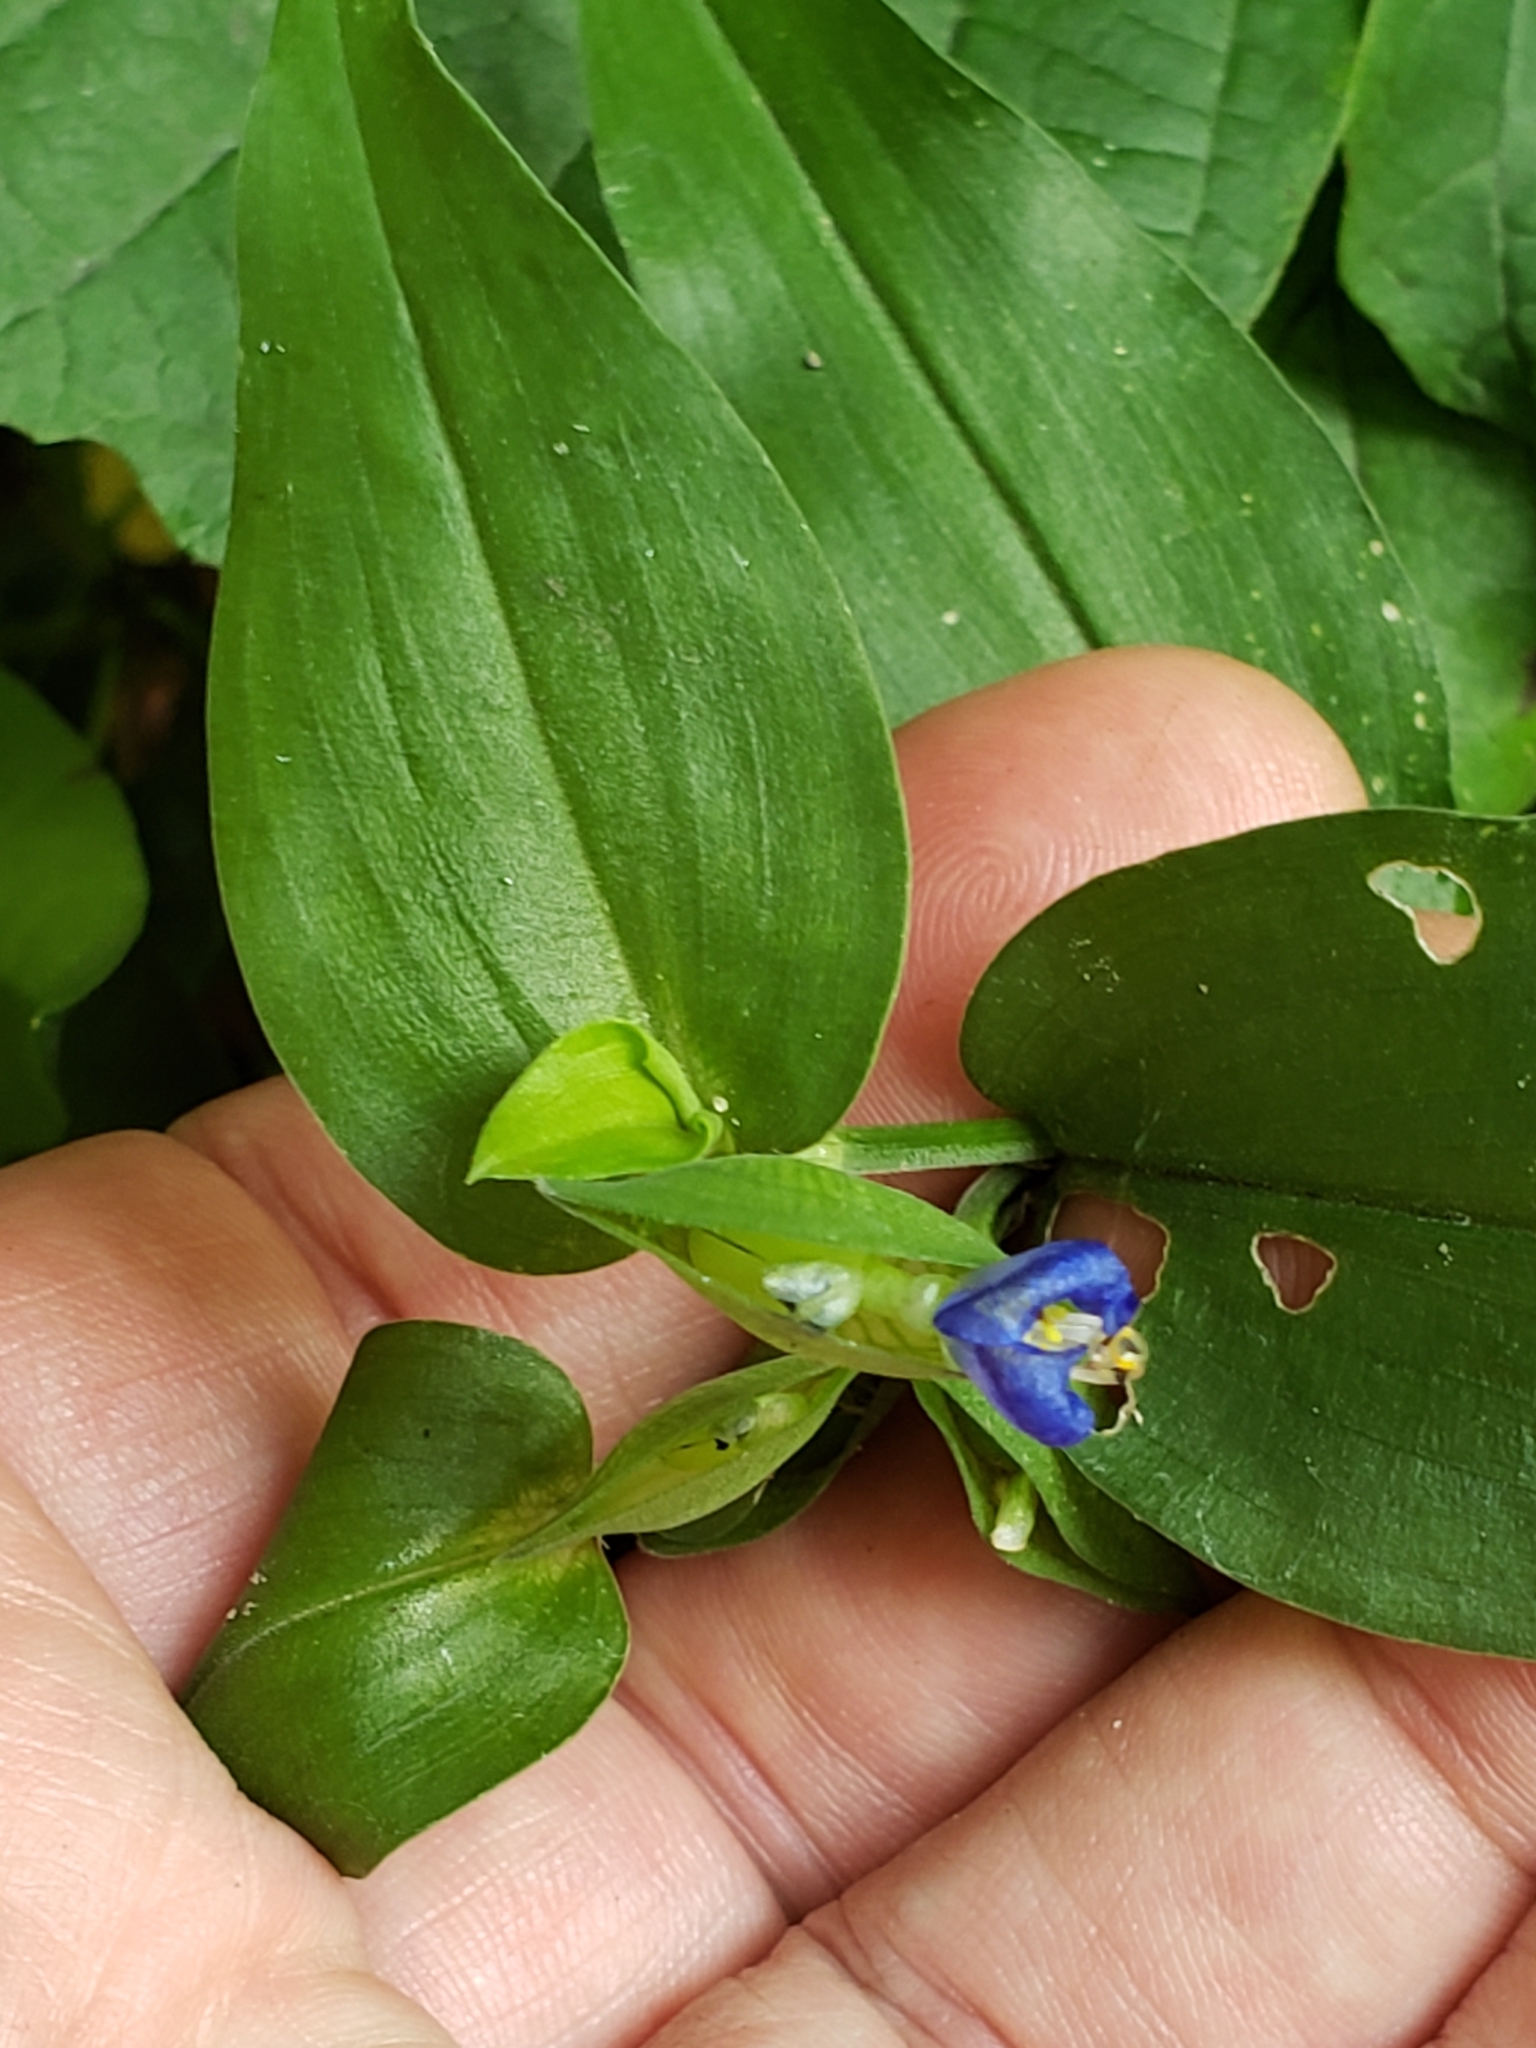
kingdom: Plantae
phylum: Tracheophyta
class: Liliopsida
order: Commelinales
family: Commelinaceae
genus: Commelina
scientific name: Commelina communis
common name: Asiatic dayflower
